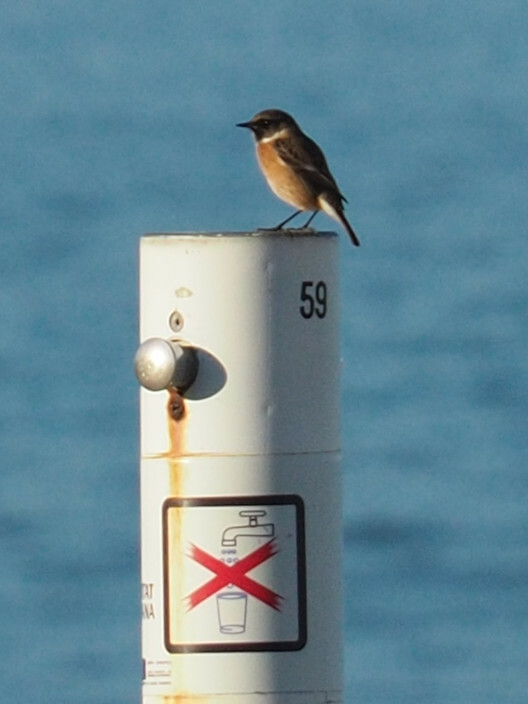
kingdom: Animalia
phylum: Chordata
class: Aves
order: Passeriformes
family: Muscicapidae
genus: Saxicola
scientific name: Saxicola rubicola
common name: European stonechat
